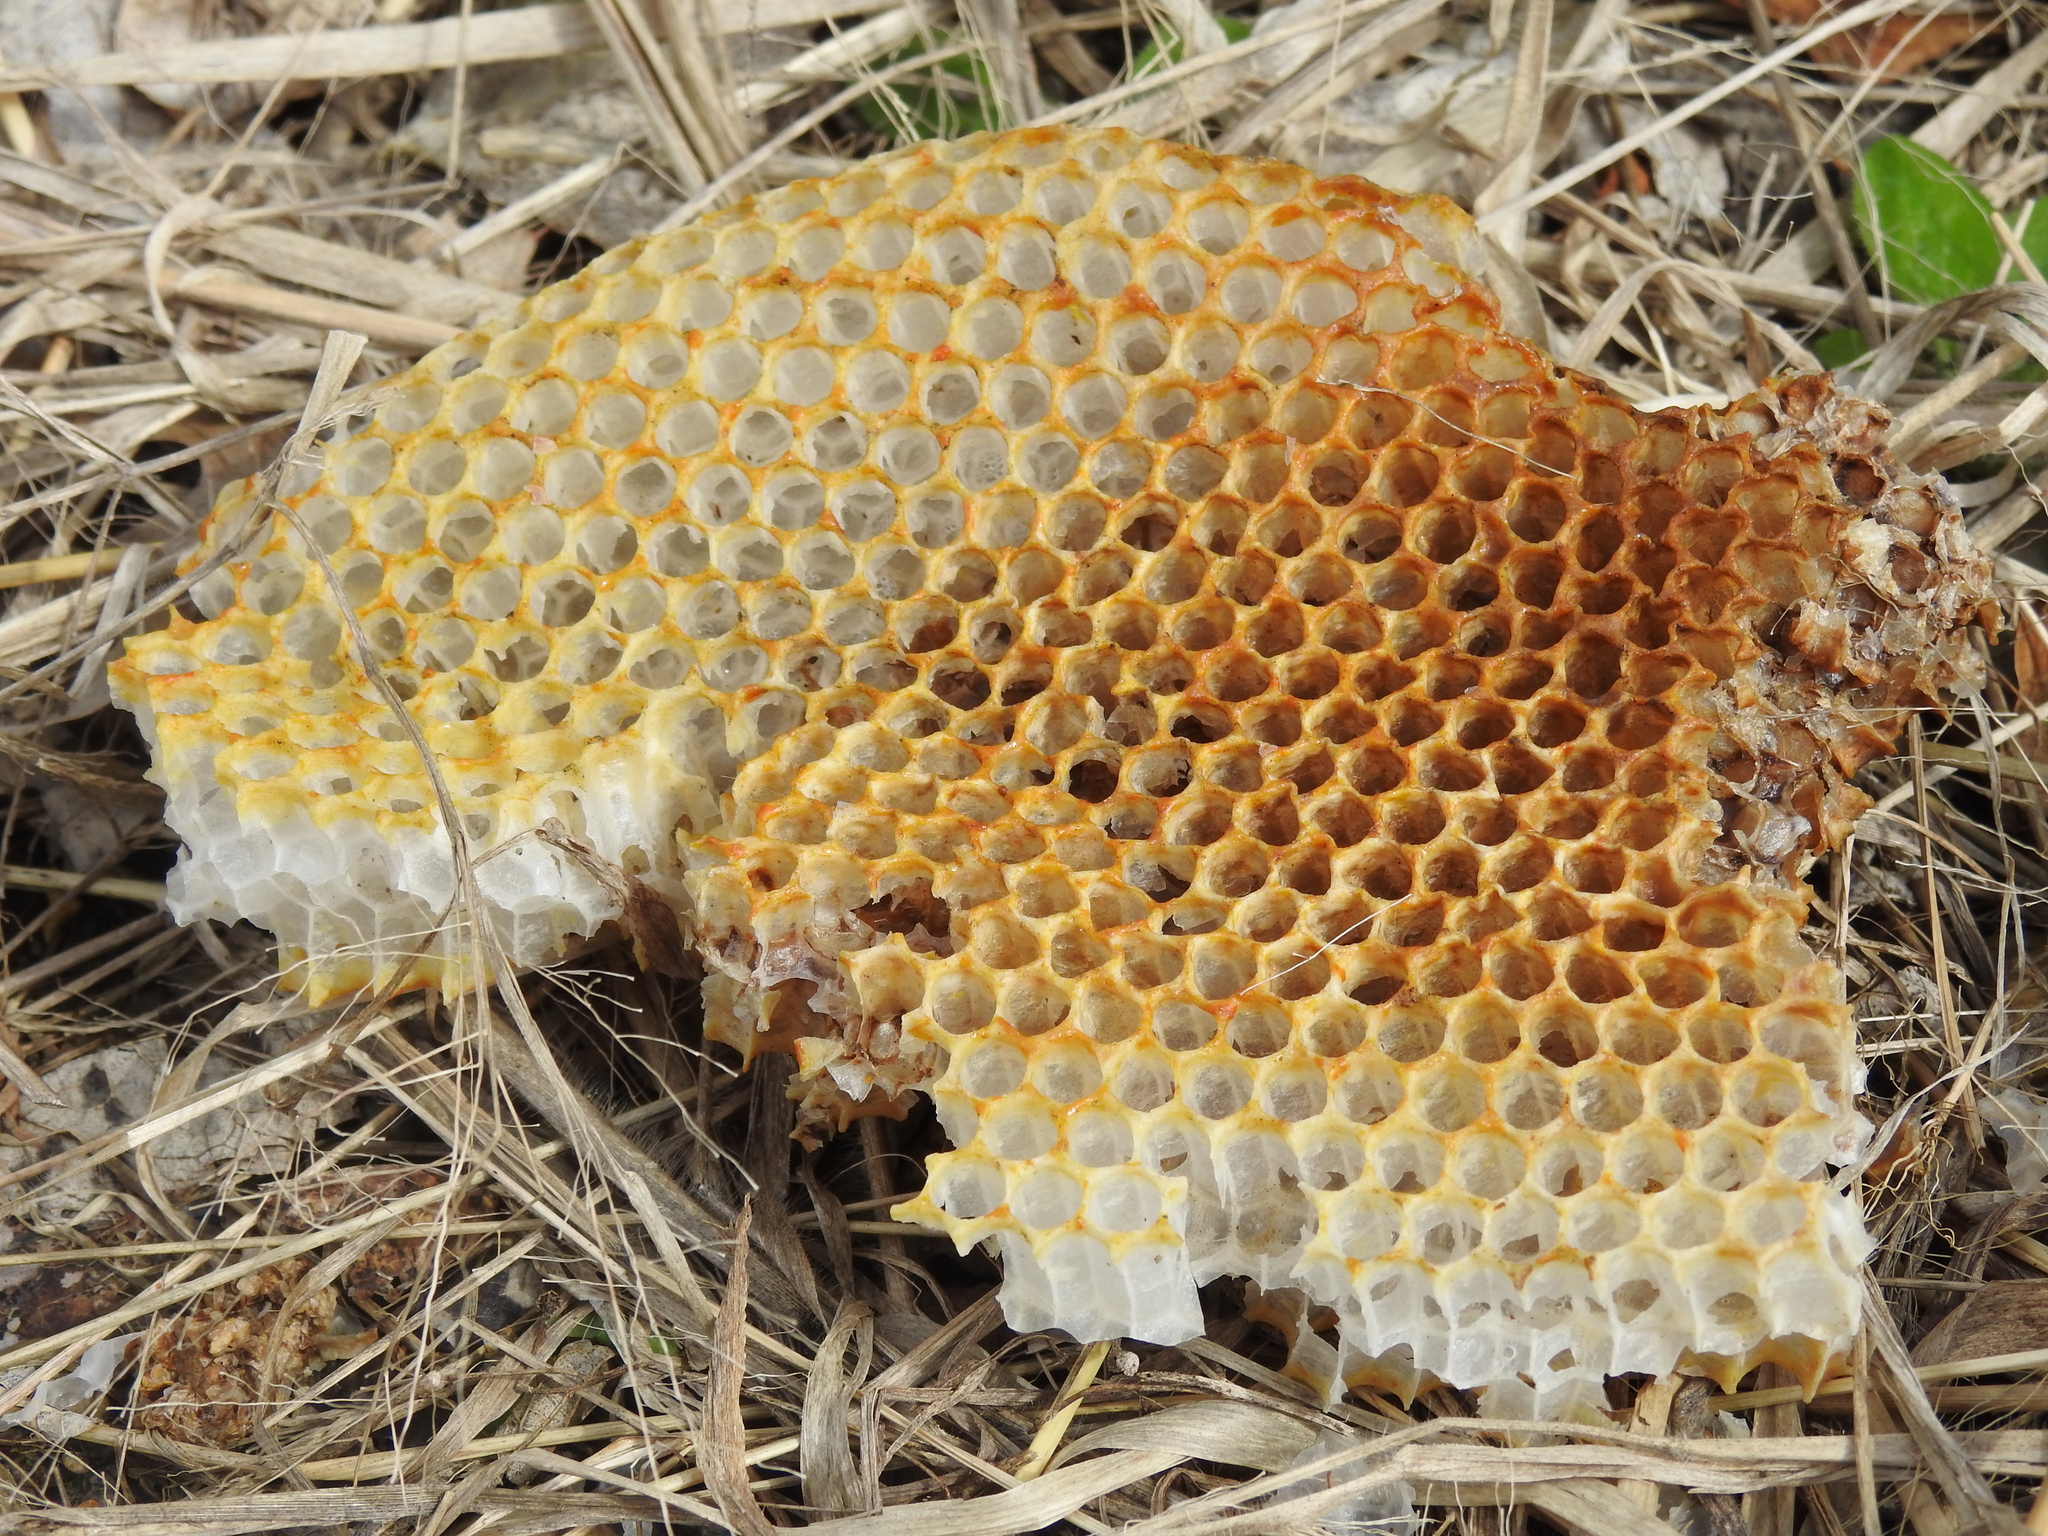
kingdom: Animalia
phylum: Arthropoda
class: Insecta
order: Hymenoptera
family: Apidae
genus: Apis
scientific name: Apis mellifera
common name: Honey bee
